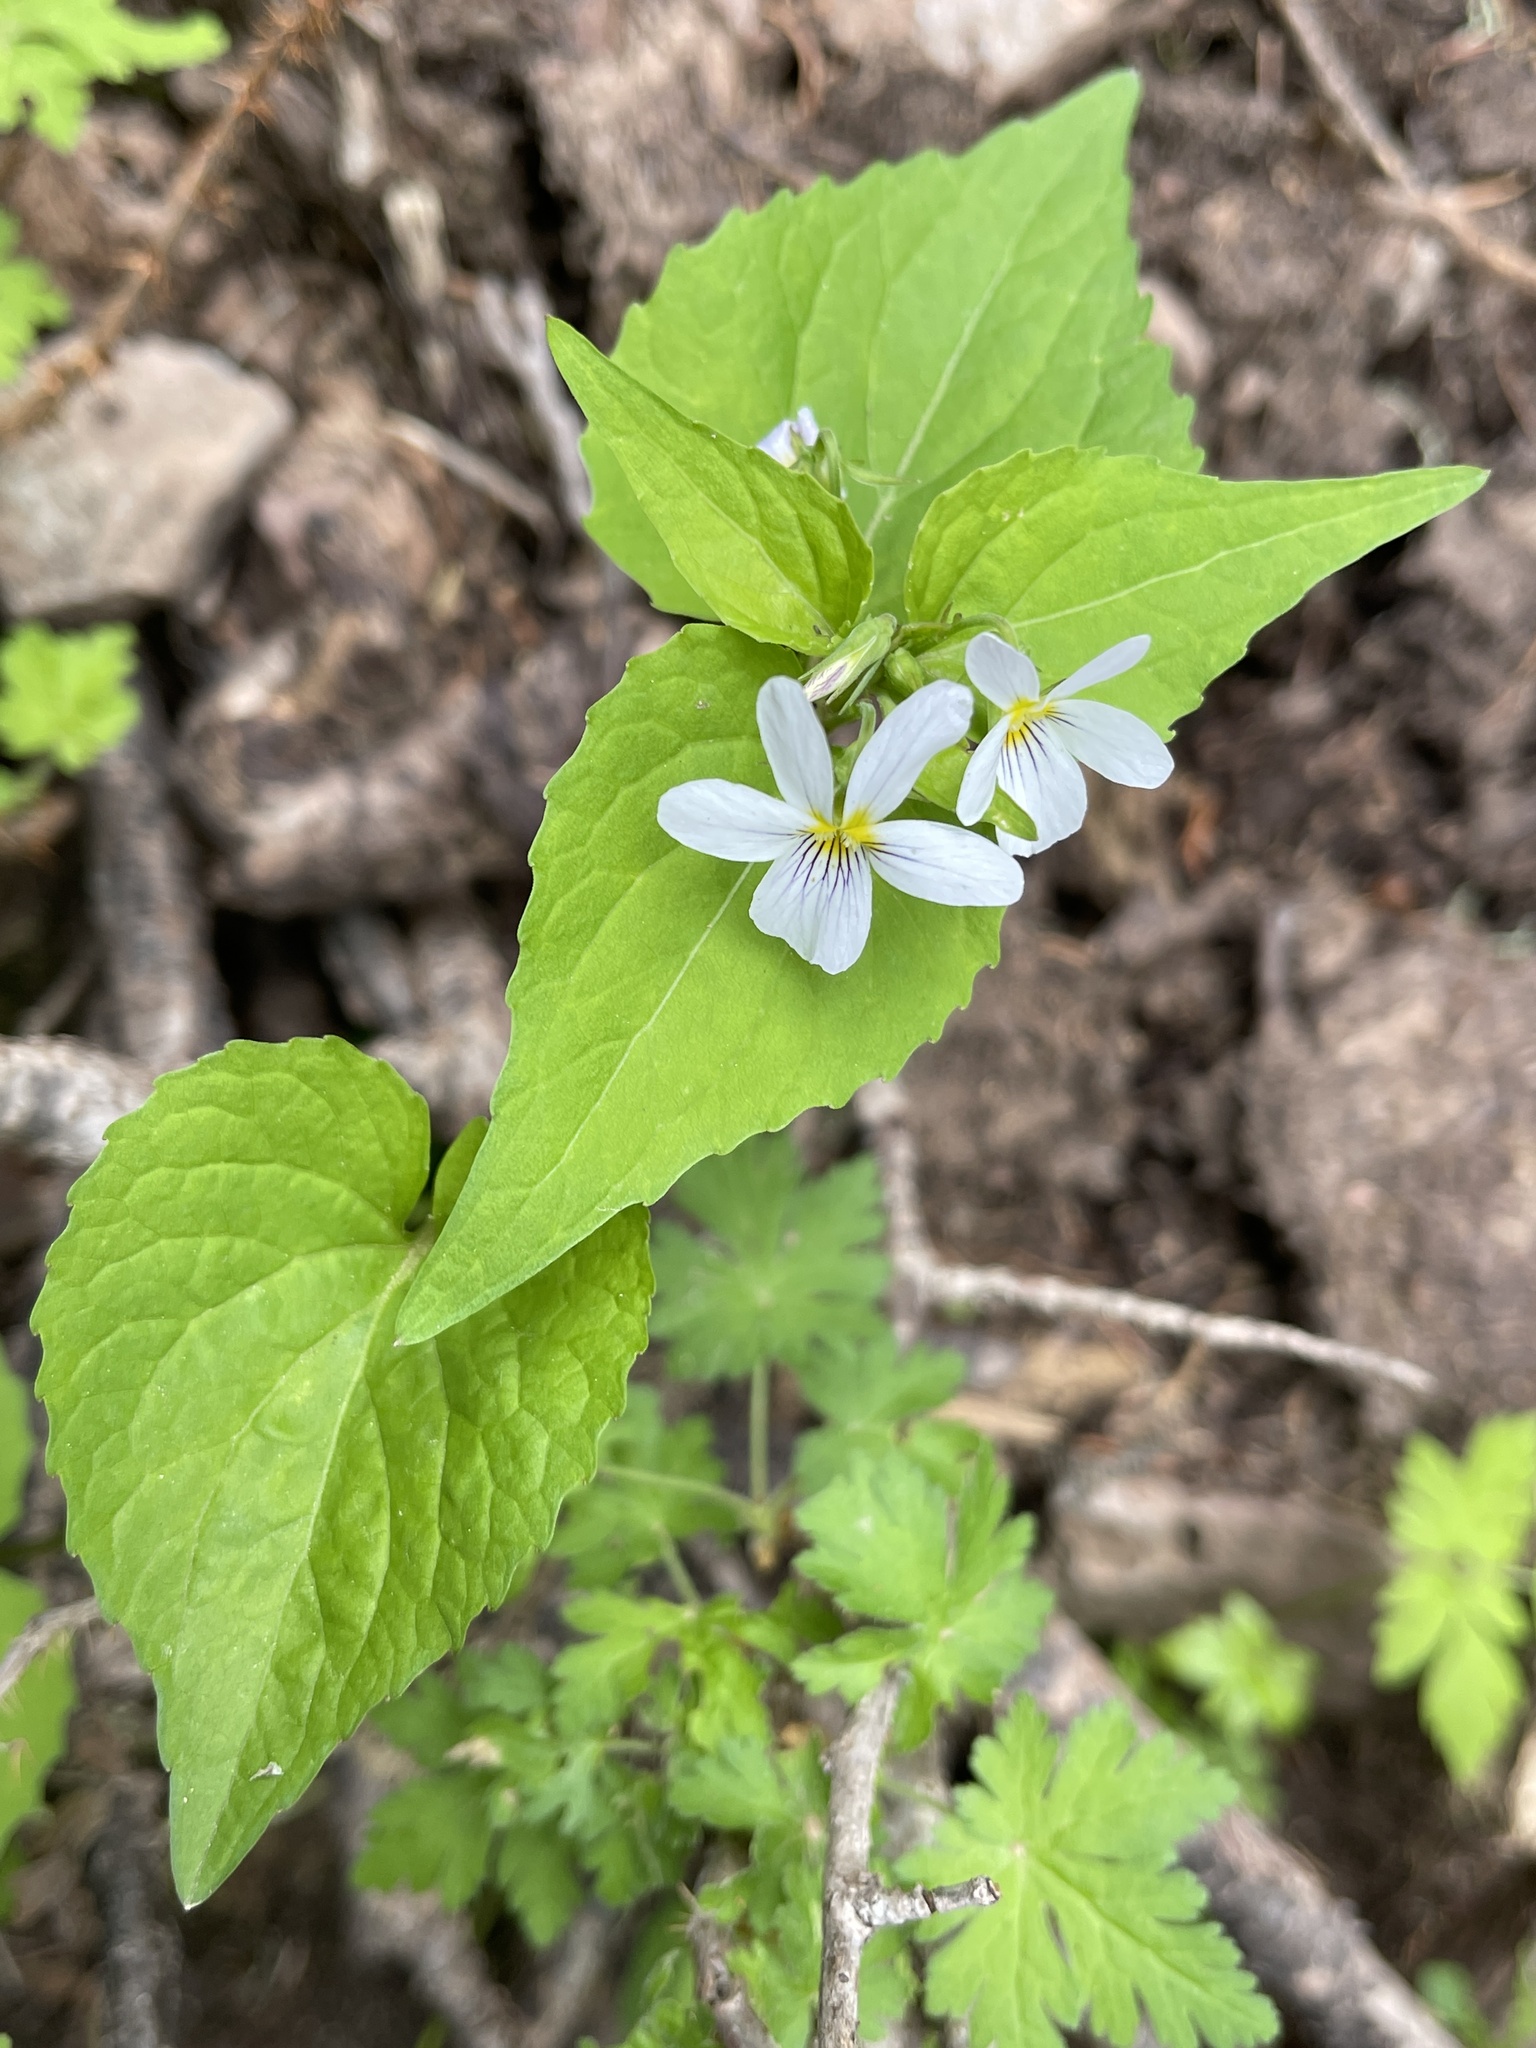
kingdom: Plantae
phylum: Tracheophyta
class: Magnoliopsida
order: Malpighiales
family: Violaceae
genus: Viola
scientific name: Viola canadensis
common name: Canada violet
